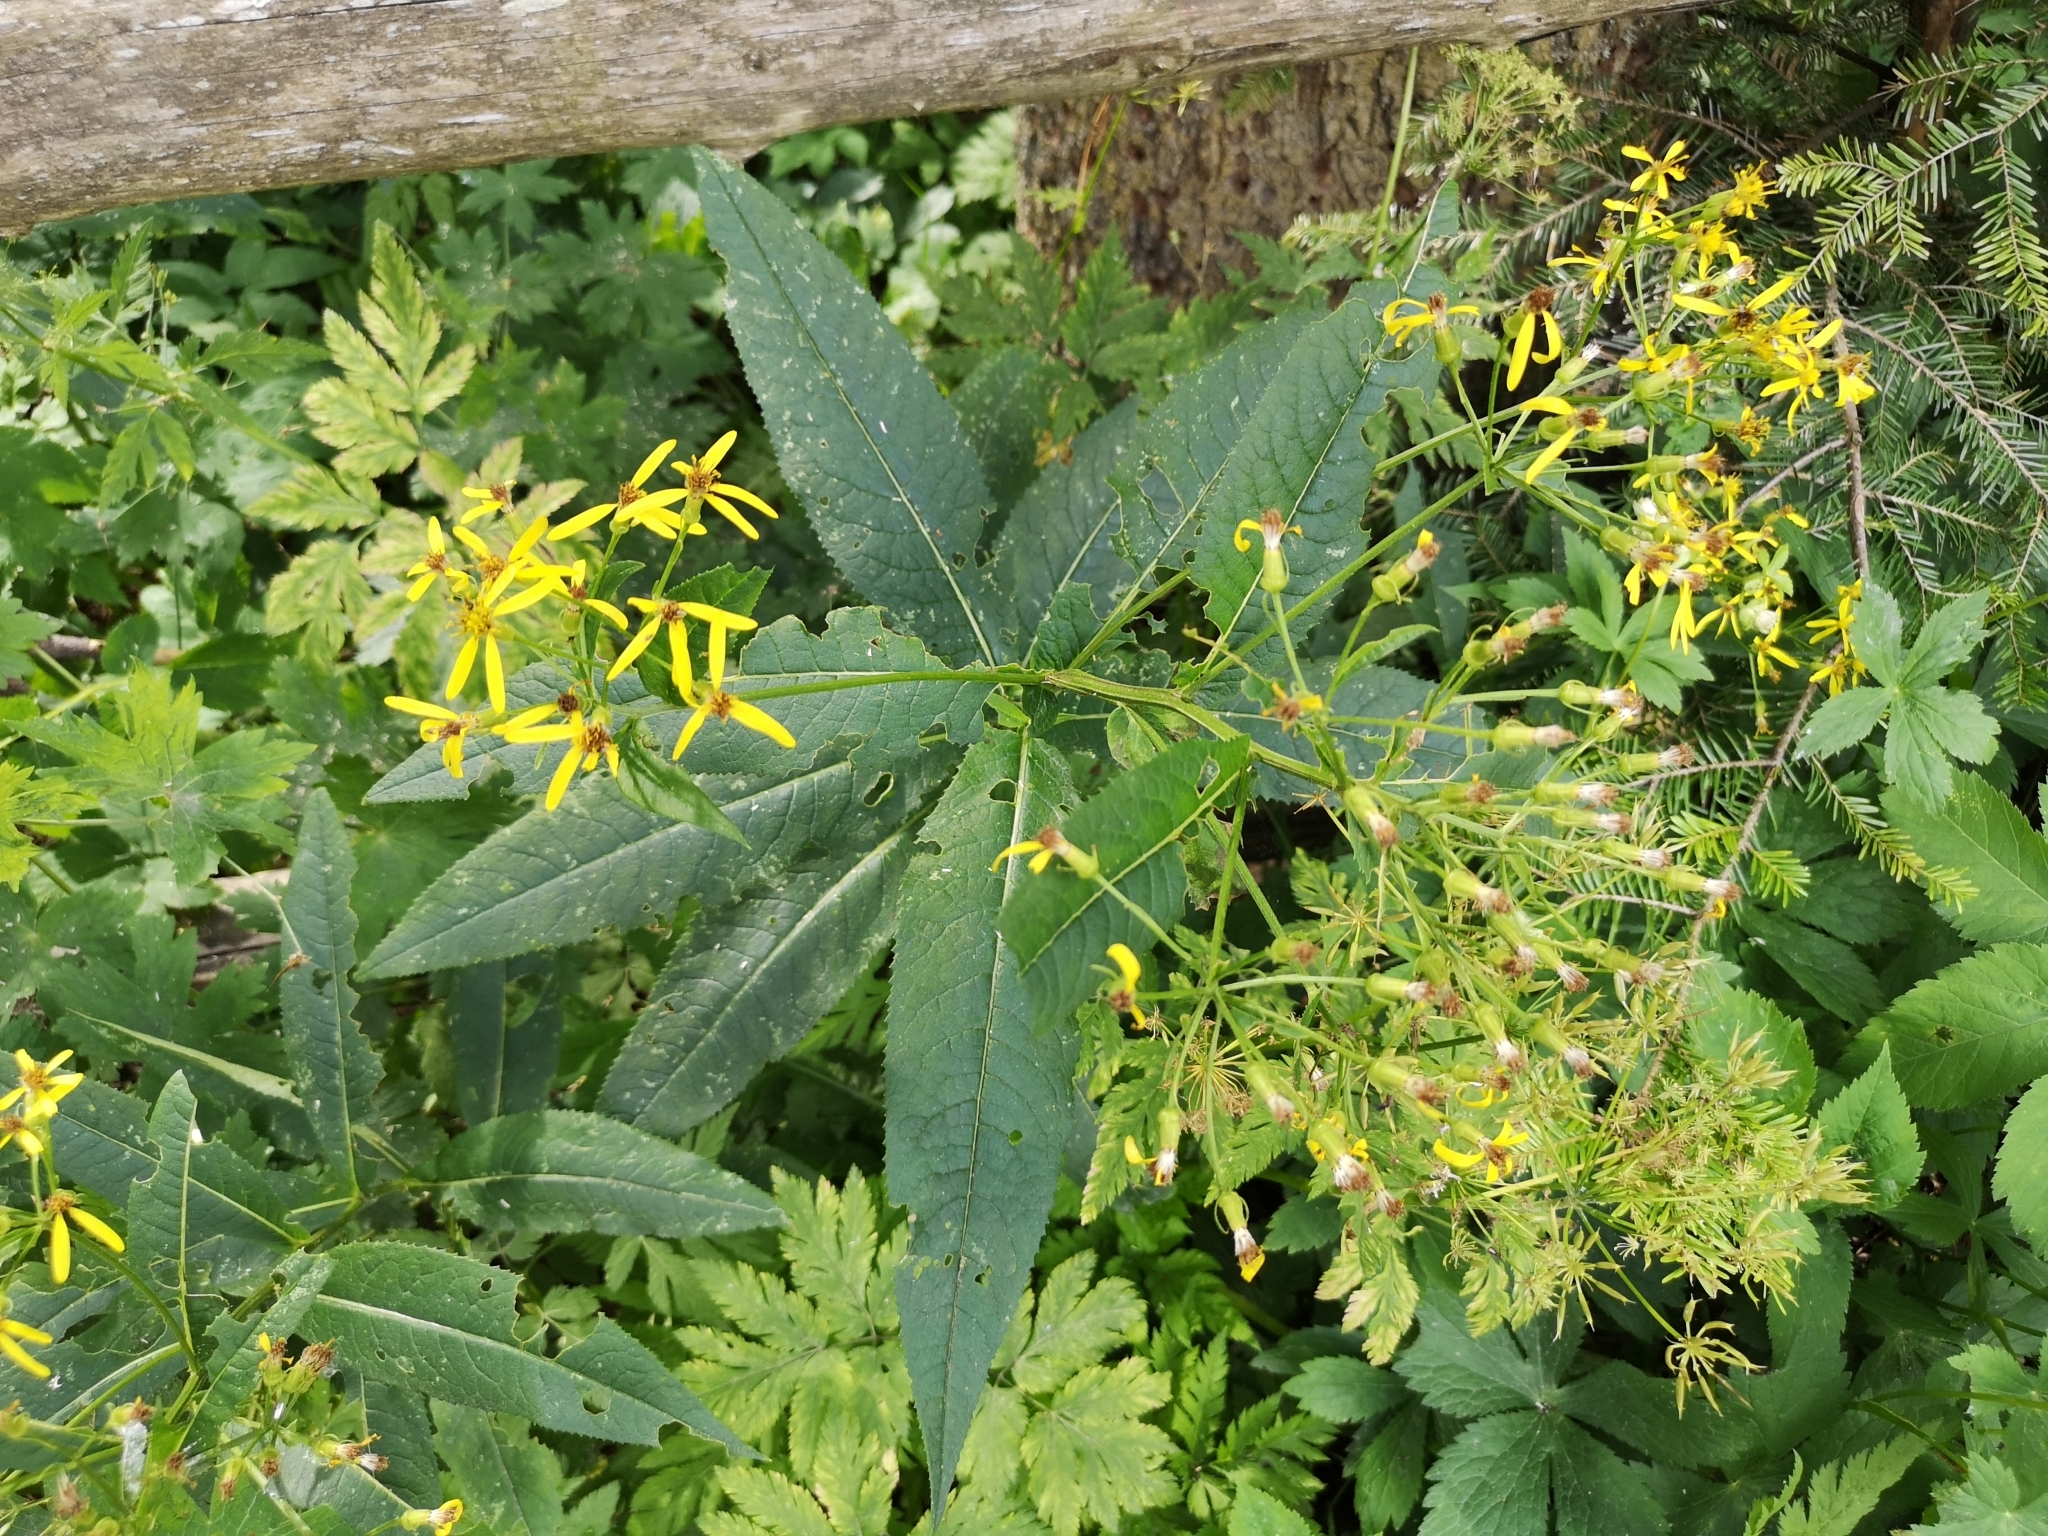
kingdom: Plantae
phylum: Tracheophyta
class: Magnoliopsida
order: Asterales
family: Asteraceae
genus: Senecio
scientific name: Senecio hercynicus
